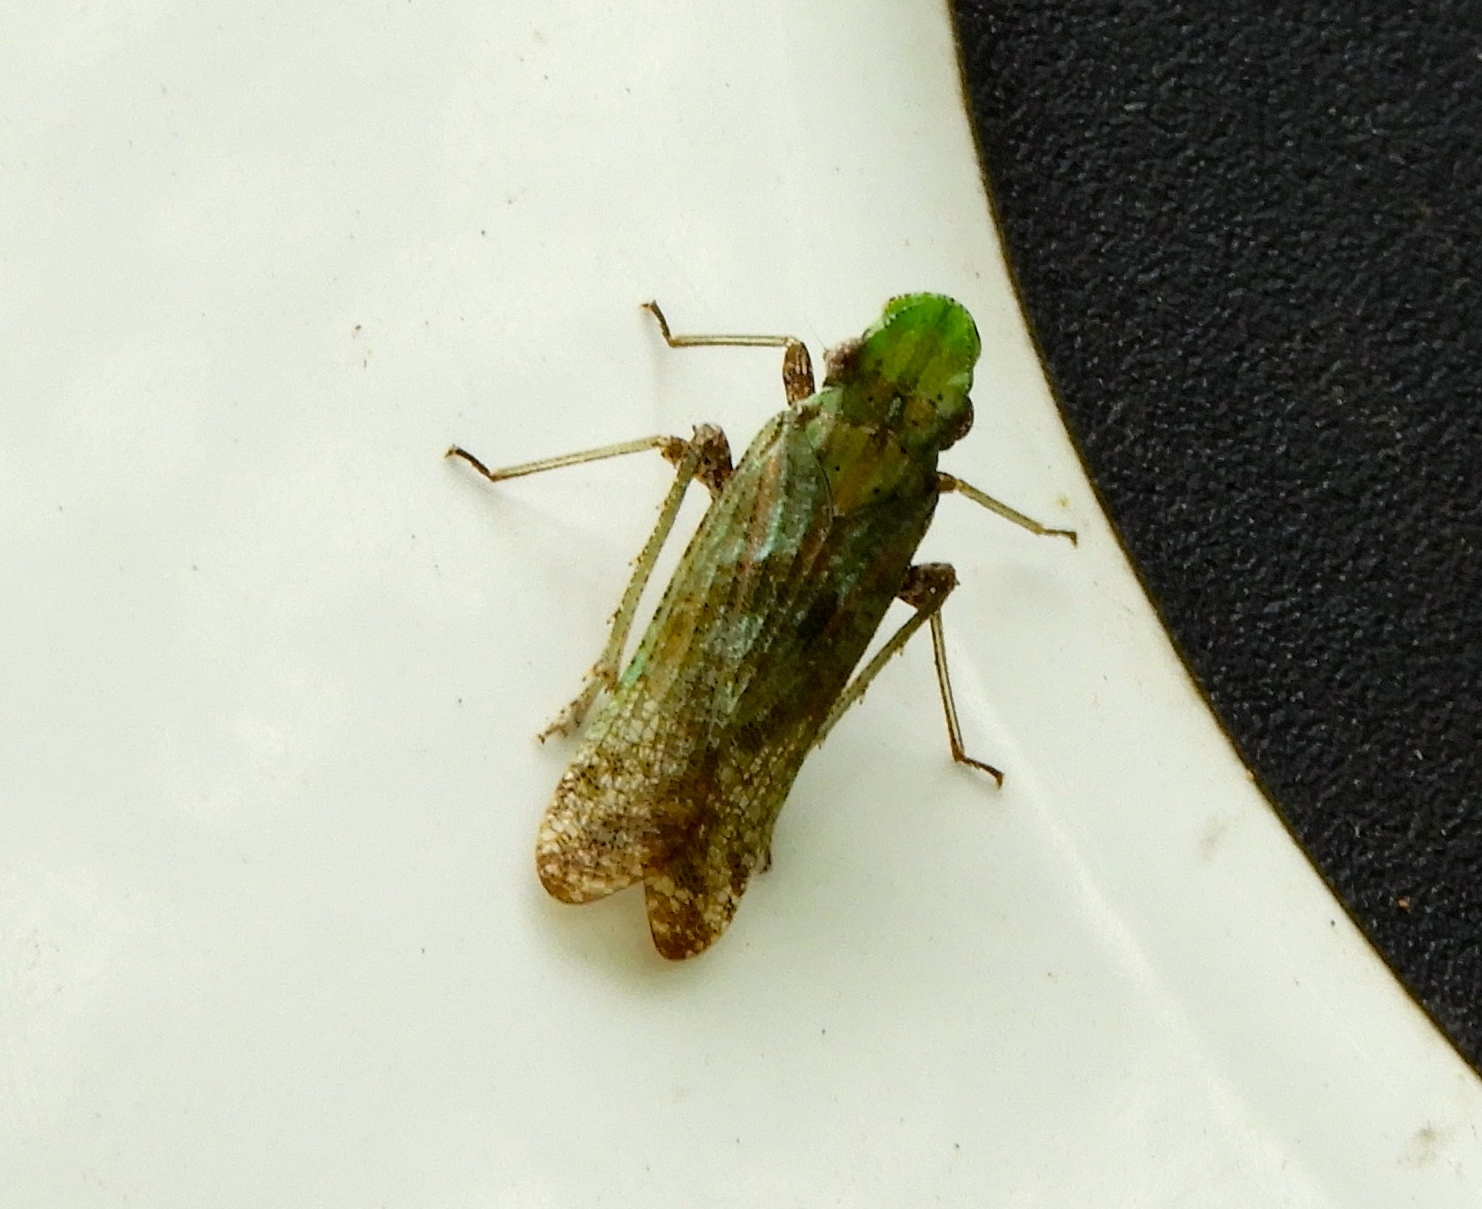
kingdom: Animalia
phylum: Arthropoda
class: Insecta
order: Hemiptera
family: Fulgoridae
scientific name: Fulgoridae
